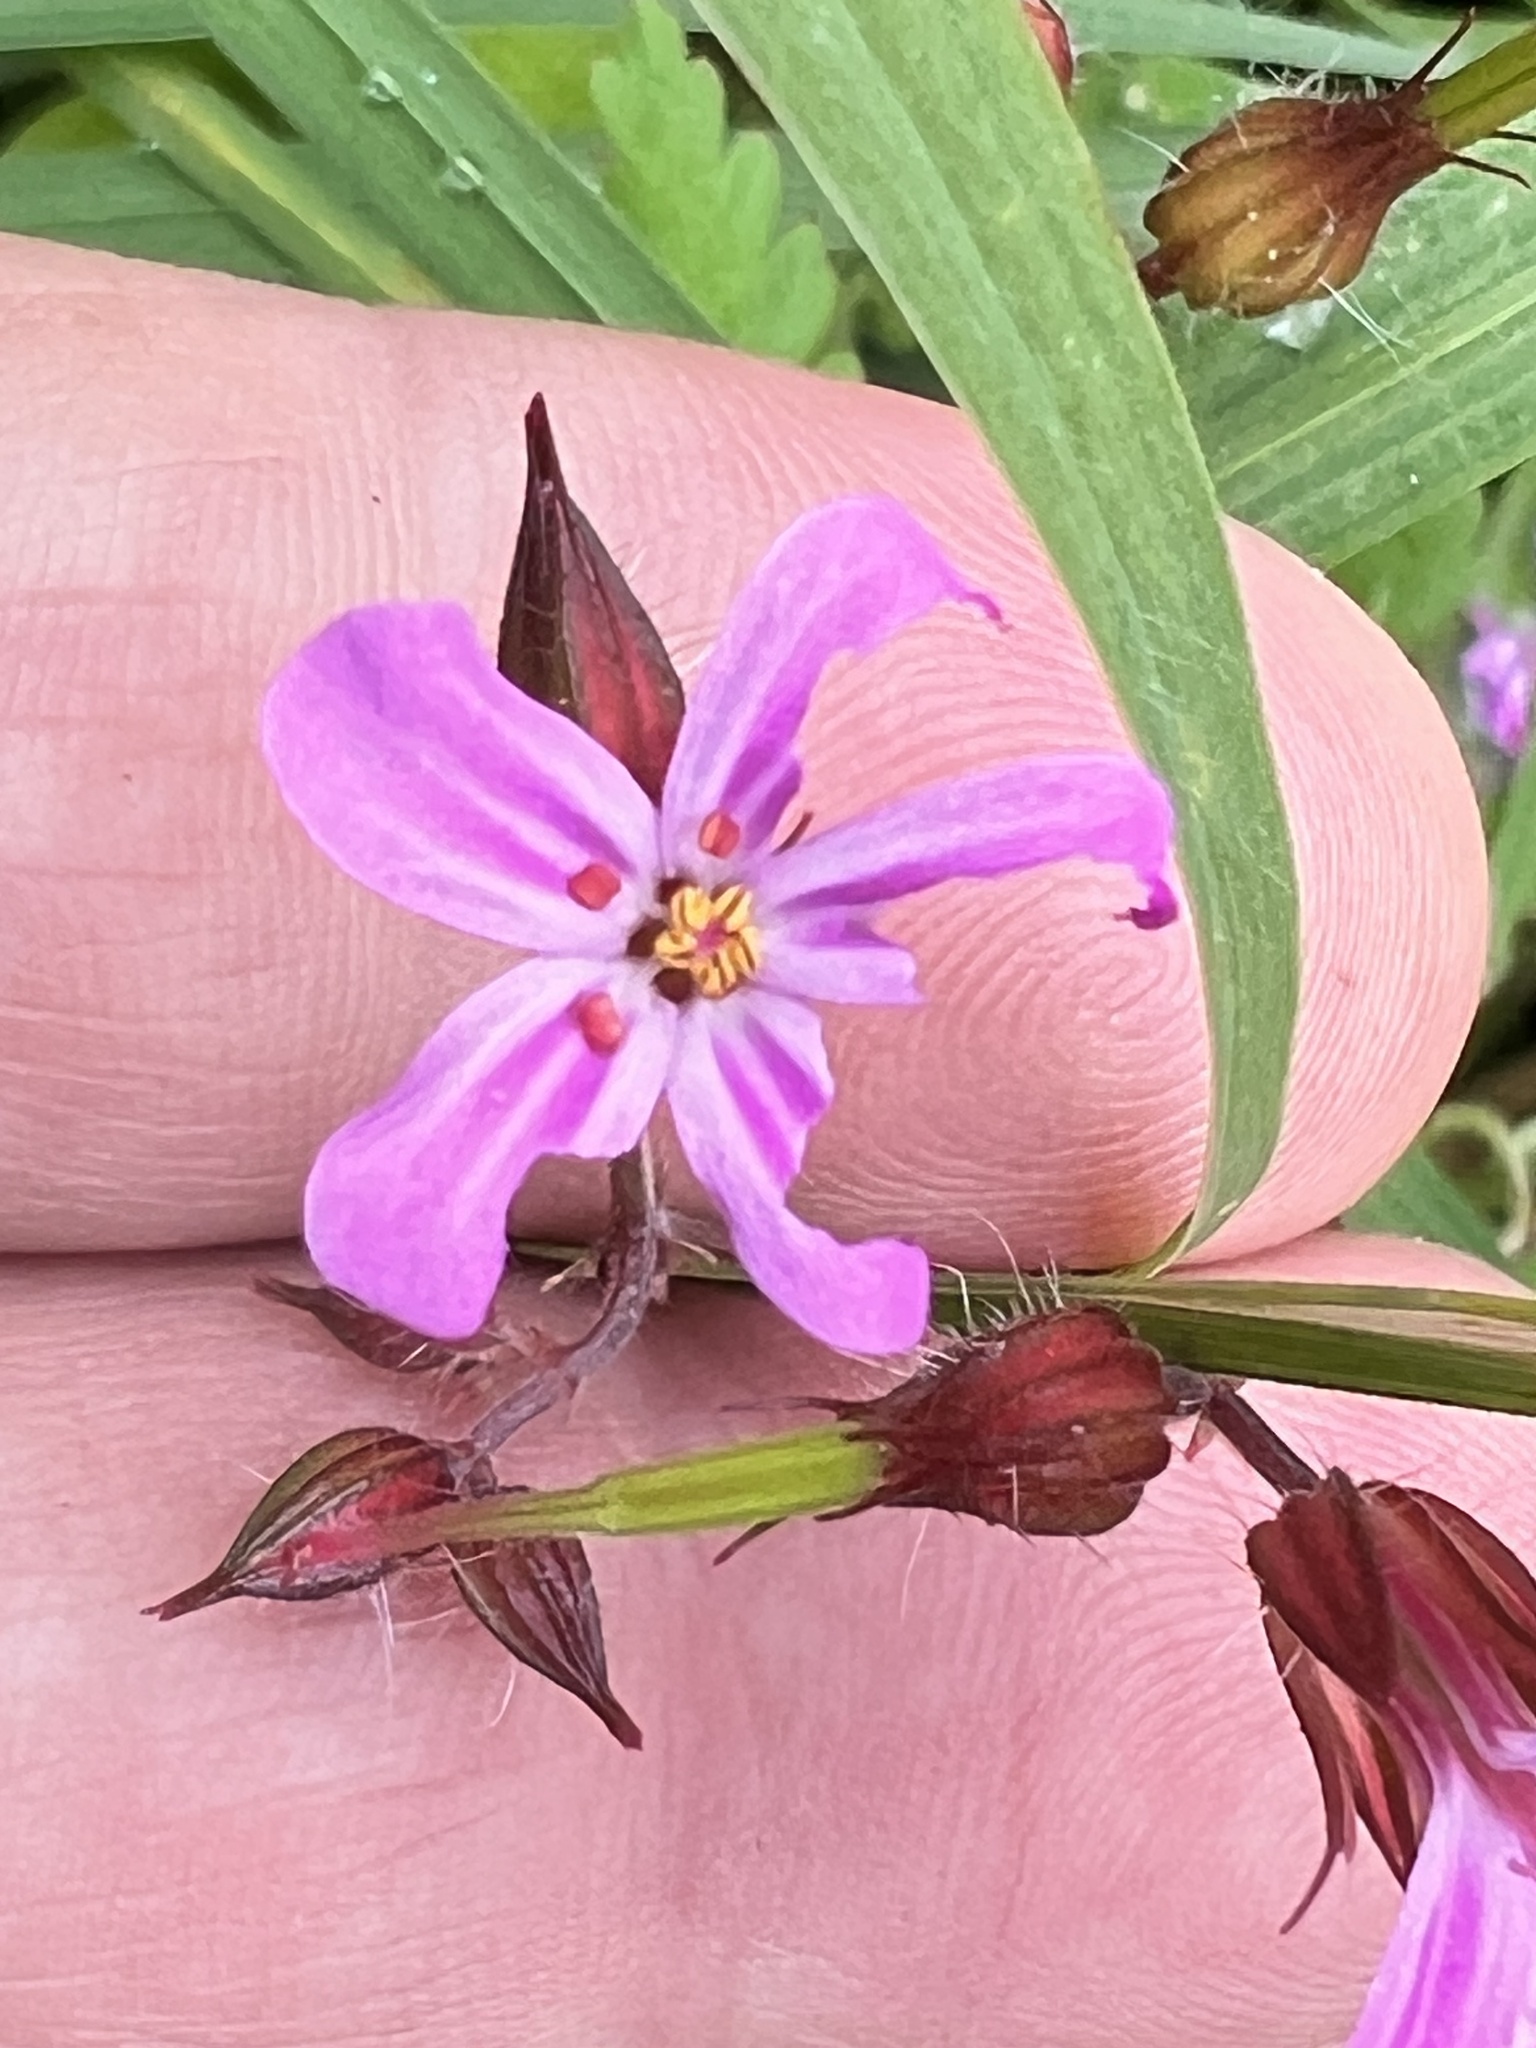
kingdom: Plantae
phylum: Tracheophyta
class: Magnoliopsida
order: Geraniales
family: Geraniaceae
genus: Geranium
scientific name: Geranium robertianum
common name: Herb-robert
